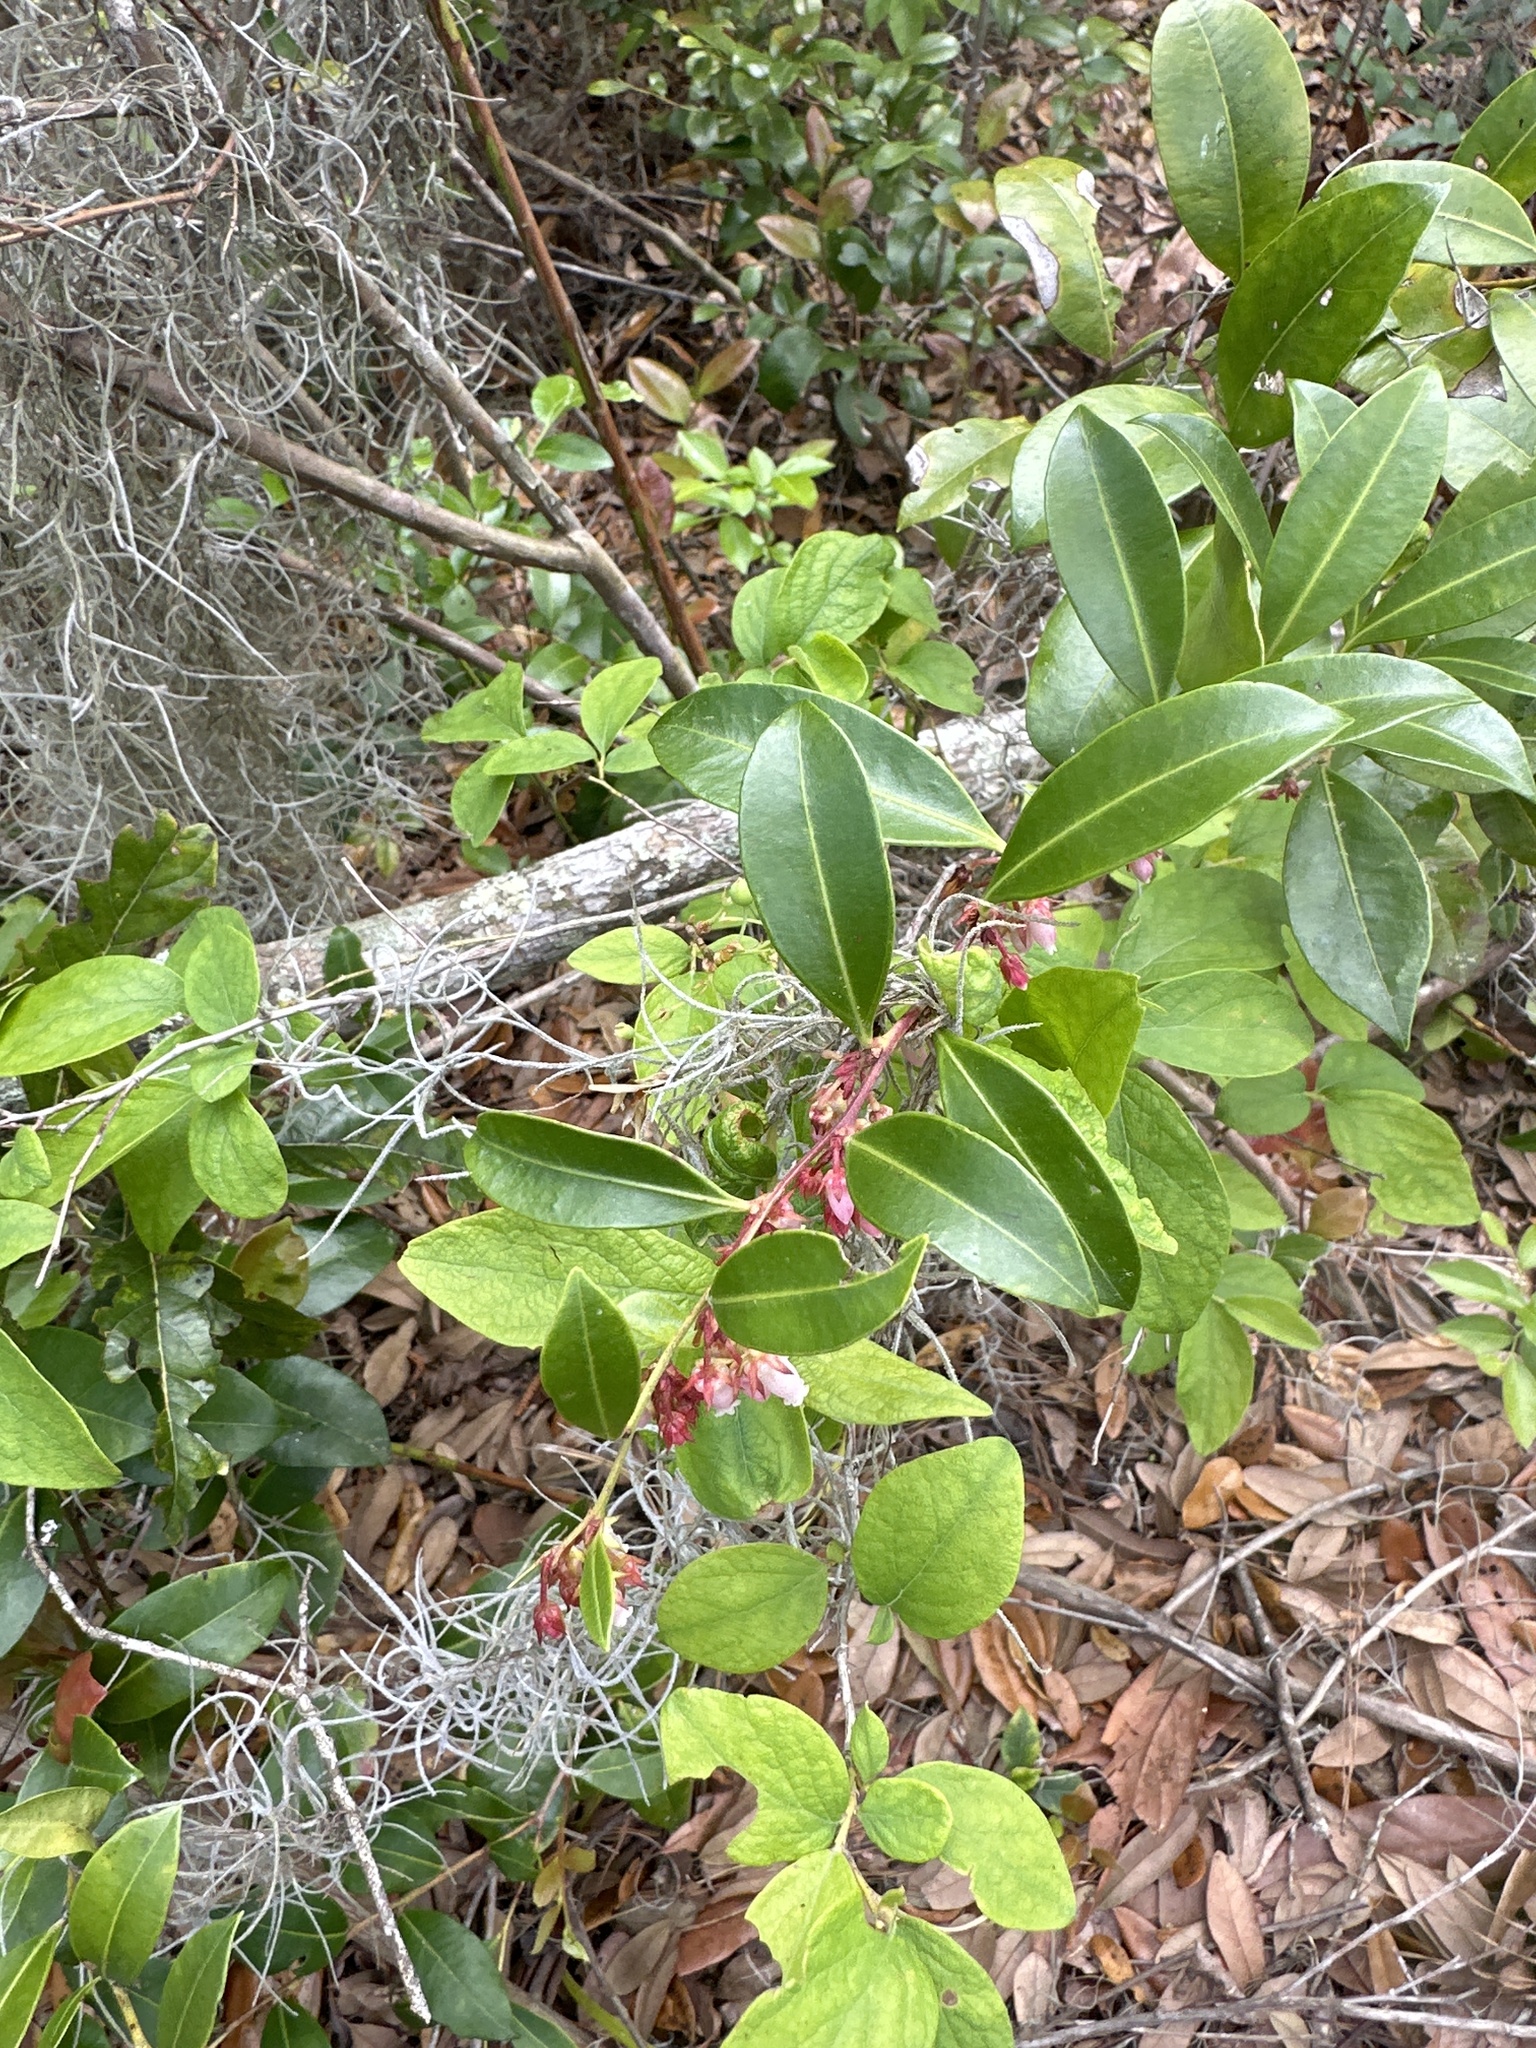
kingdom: Plantae
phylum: Tracheophyta
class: Magnoliopsida
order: Ericales
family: Ericaceae
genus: Lyonia
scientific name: Lyonia lucida
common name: Fetterbush
